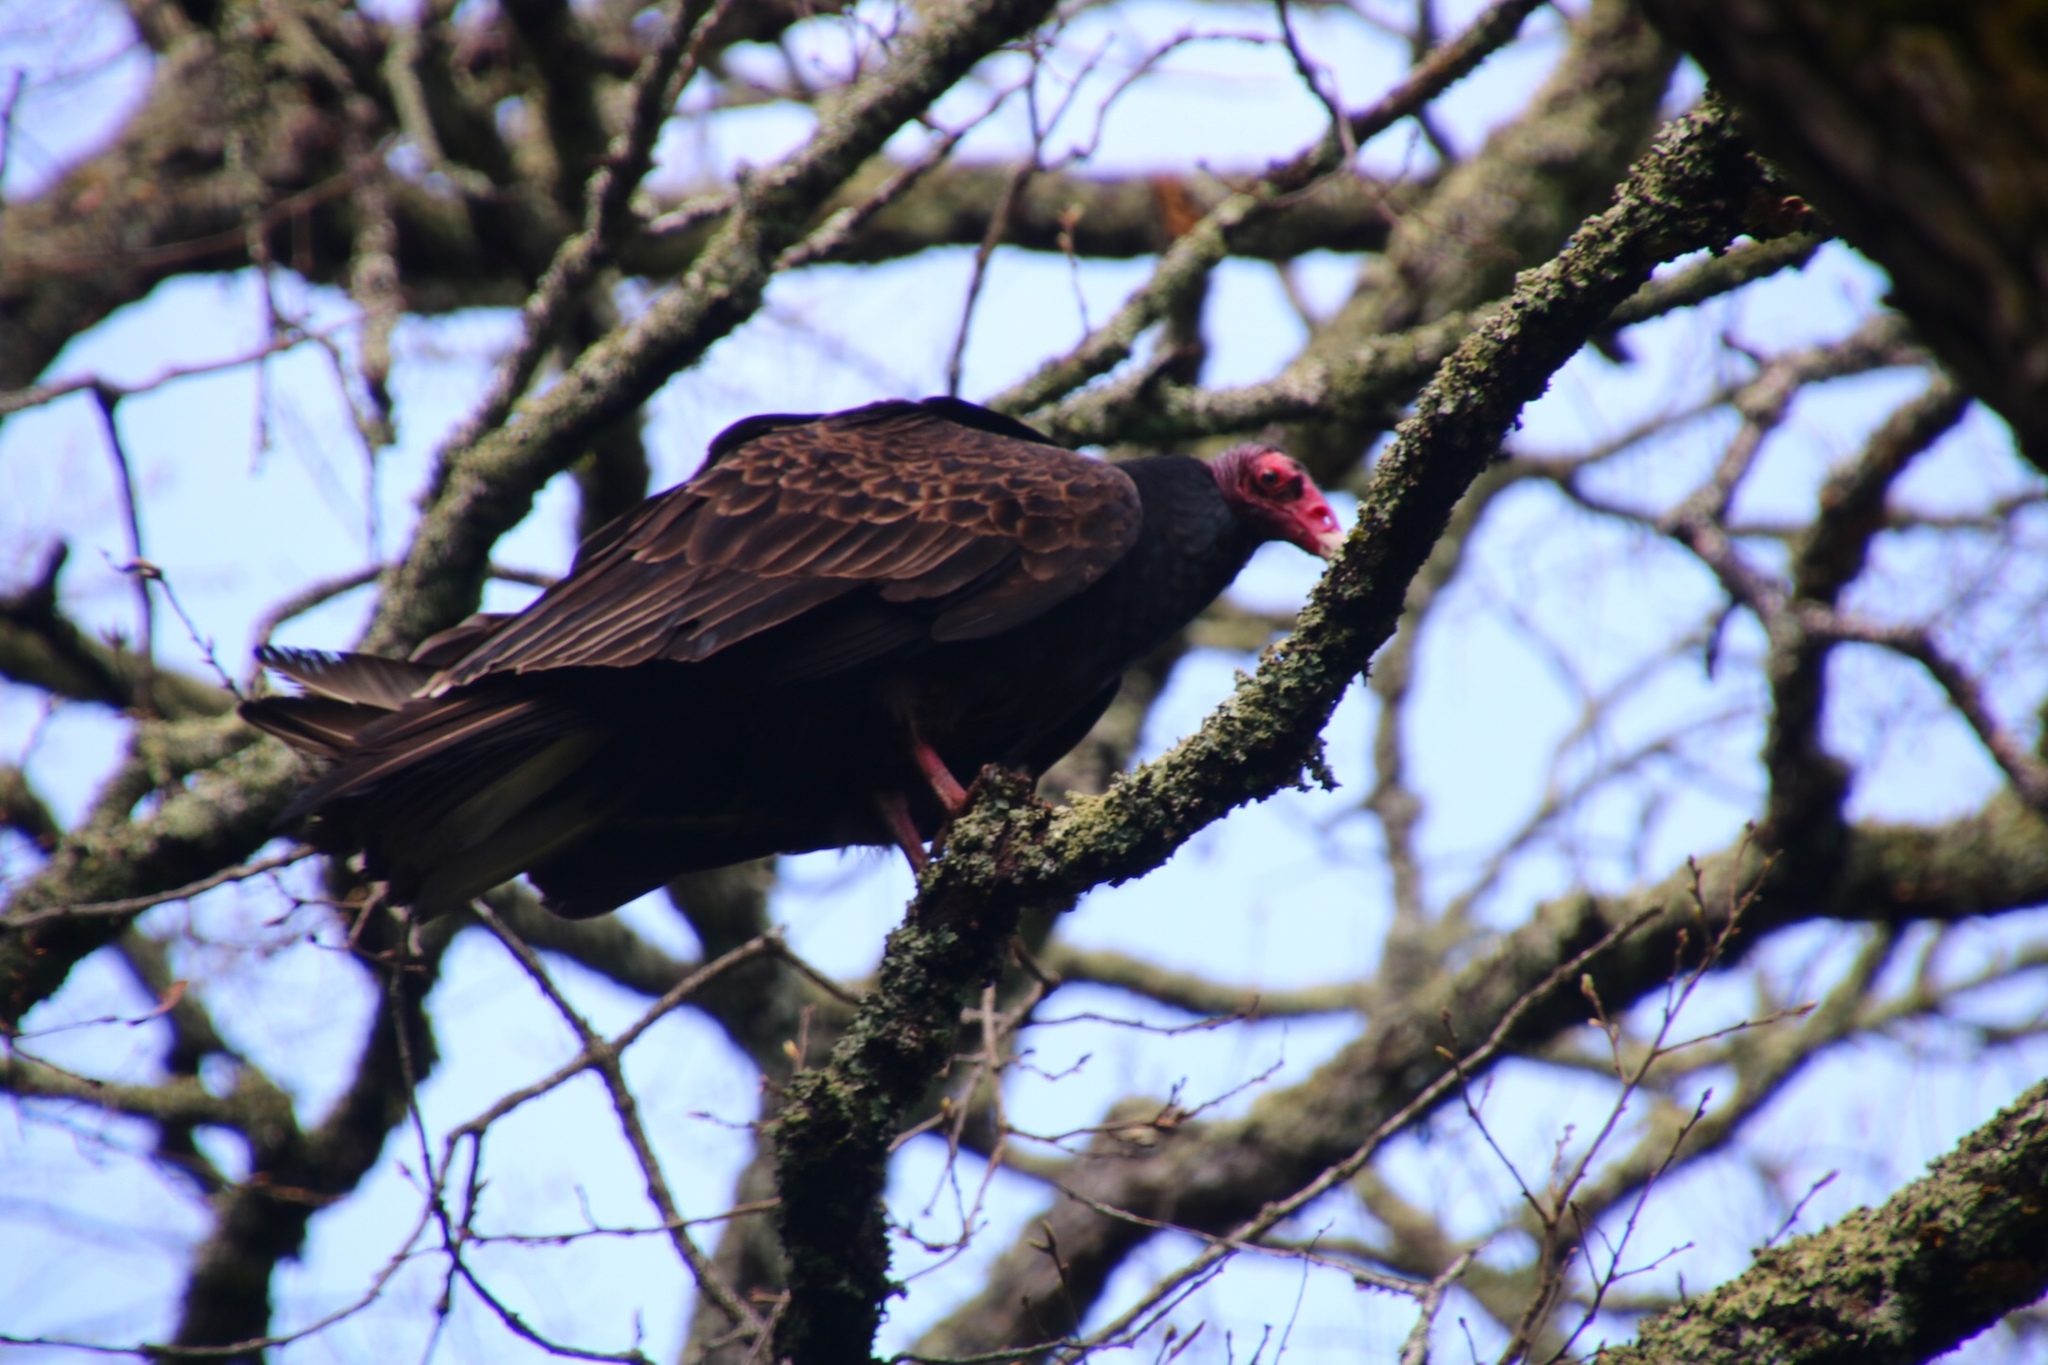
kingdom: Animalia
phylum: Chordata
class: Aves
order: Accipitriformes
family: Cathartidae
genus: Cathartes
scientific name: Cathartes aura
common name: Turkey vulture
